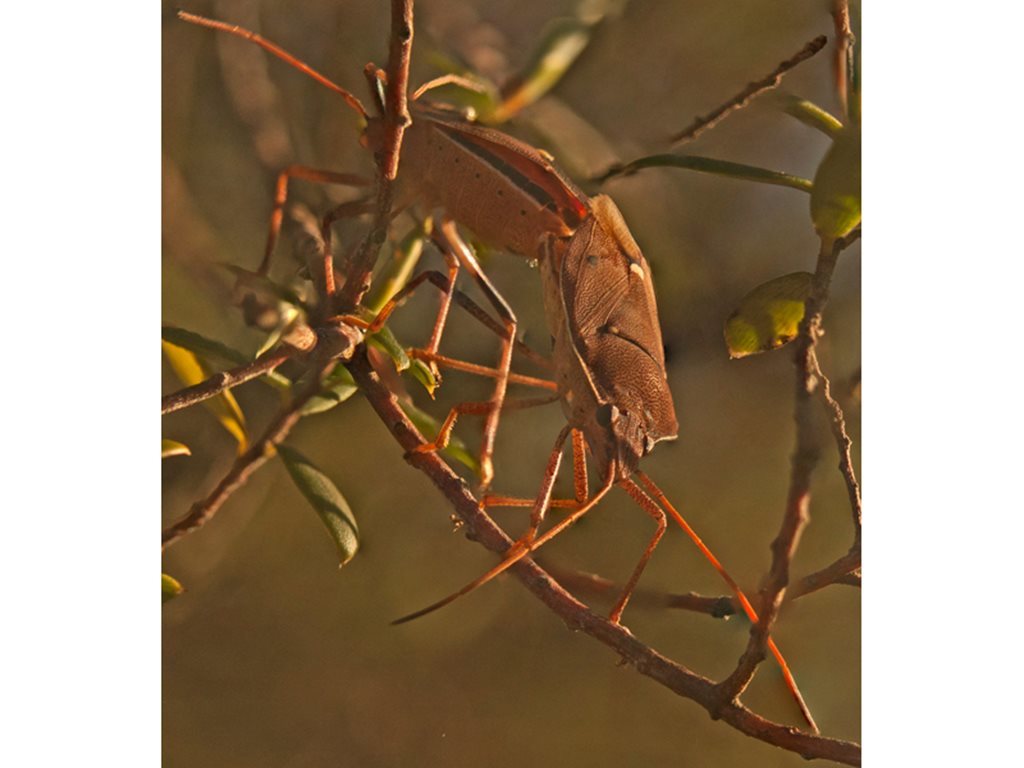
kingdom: Animalia
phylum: Arthropoda
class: Insecta
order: Hemiptera
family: Pentatomidae
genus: Poecilometis
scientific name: Poecilometis
